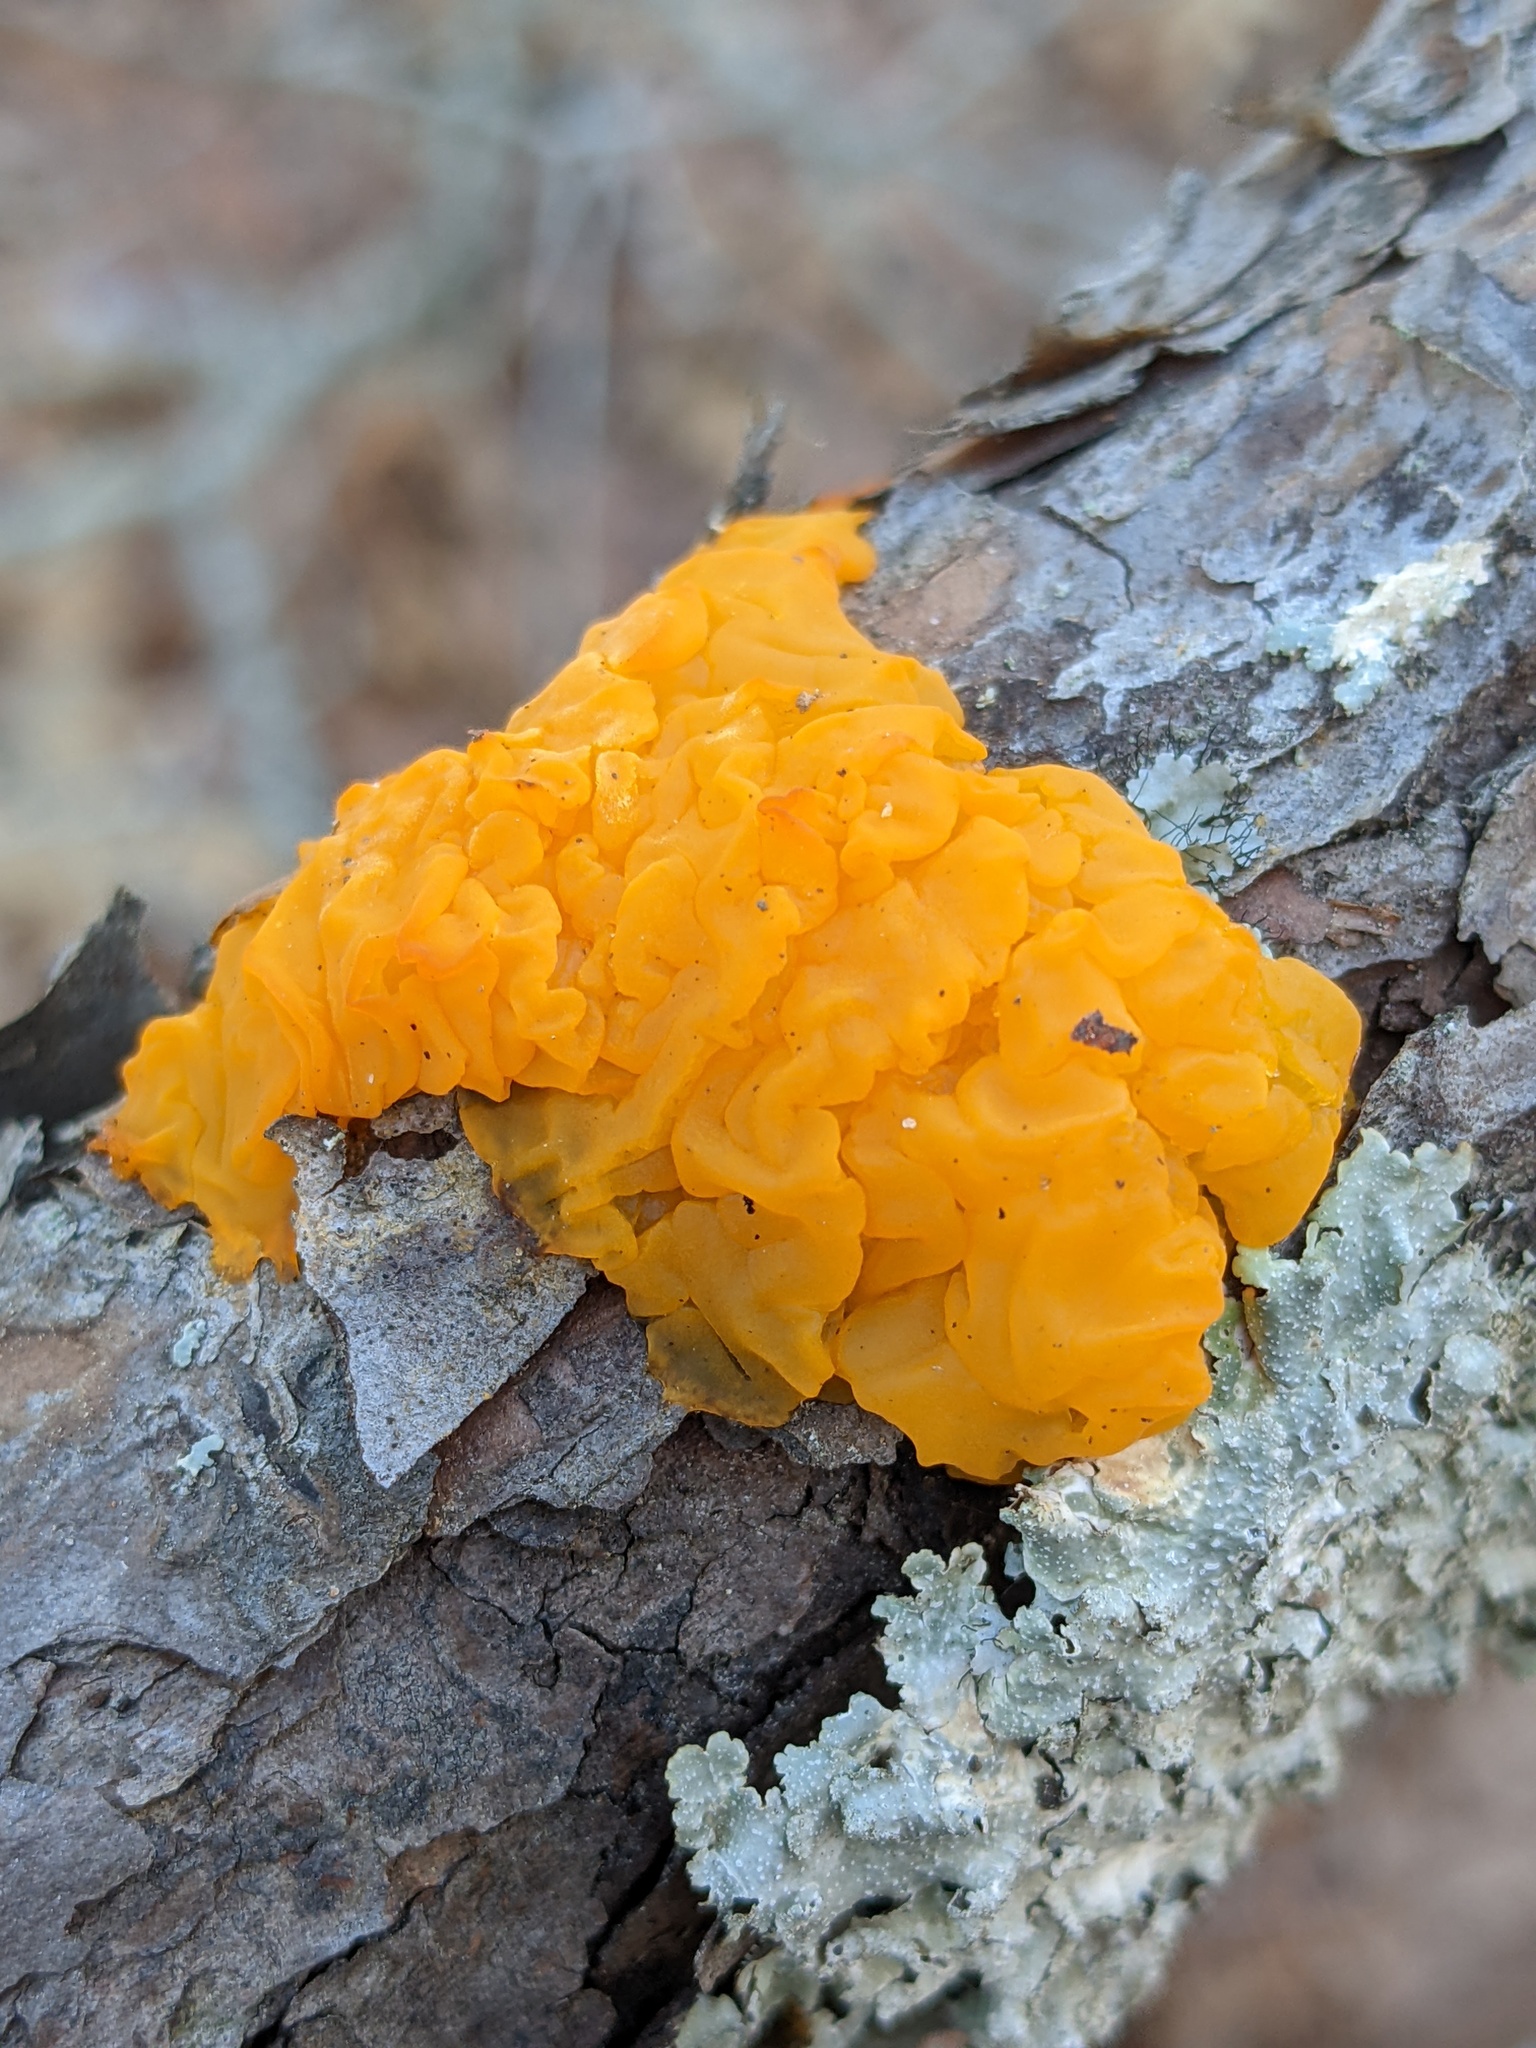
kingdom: Fungi
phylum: Basidiomycota
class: Dacrymycetes
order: Dacrymycetales
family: Dacrymycetaceae
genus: Dacrymyces
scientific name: Dacrymyces chrysospermus
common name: Orange jelly spot
